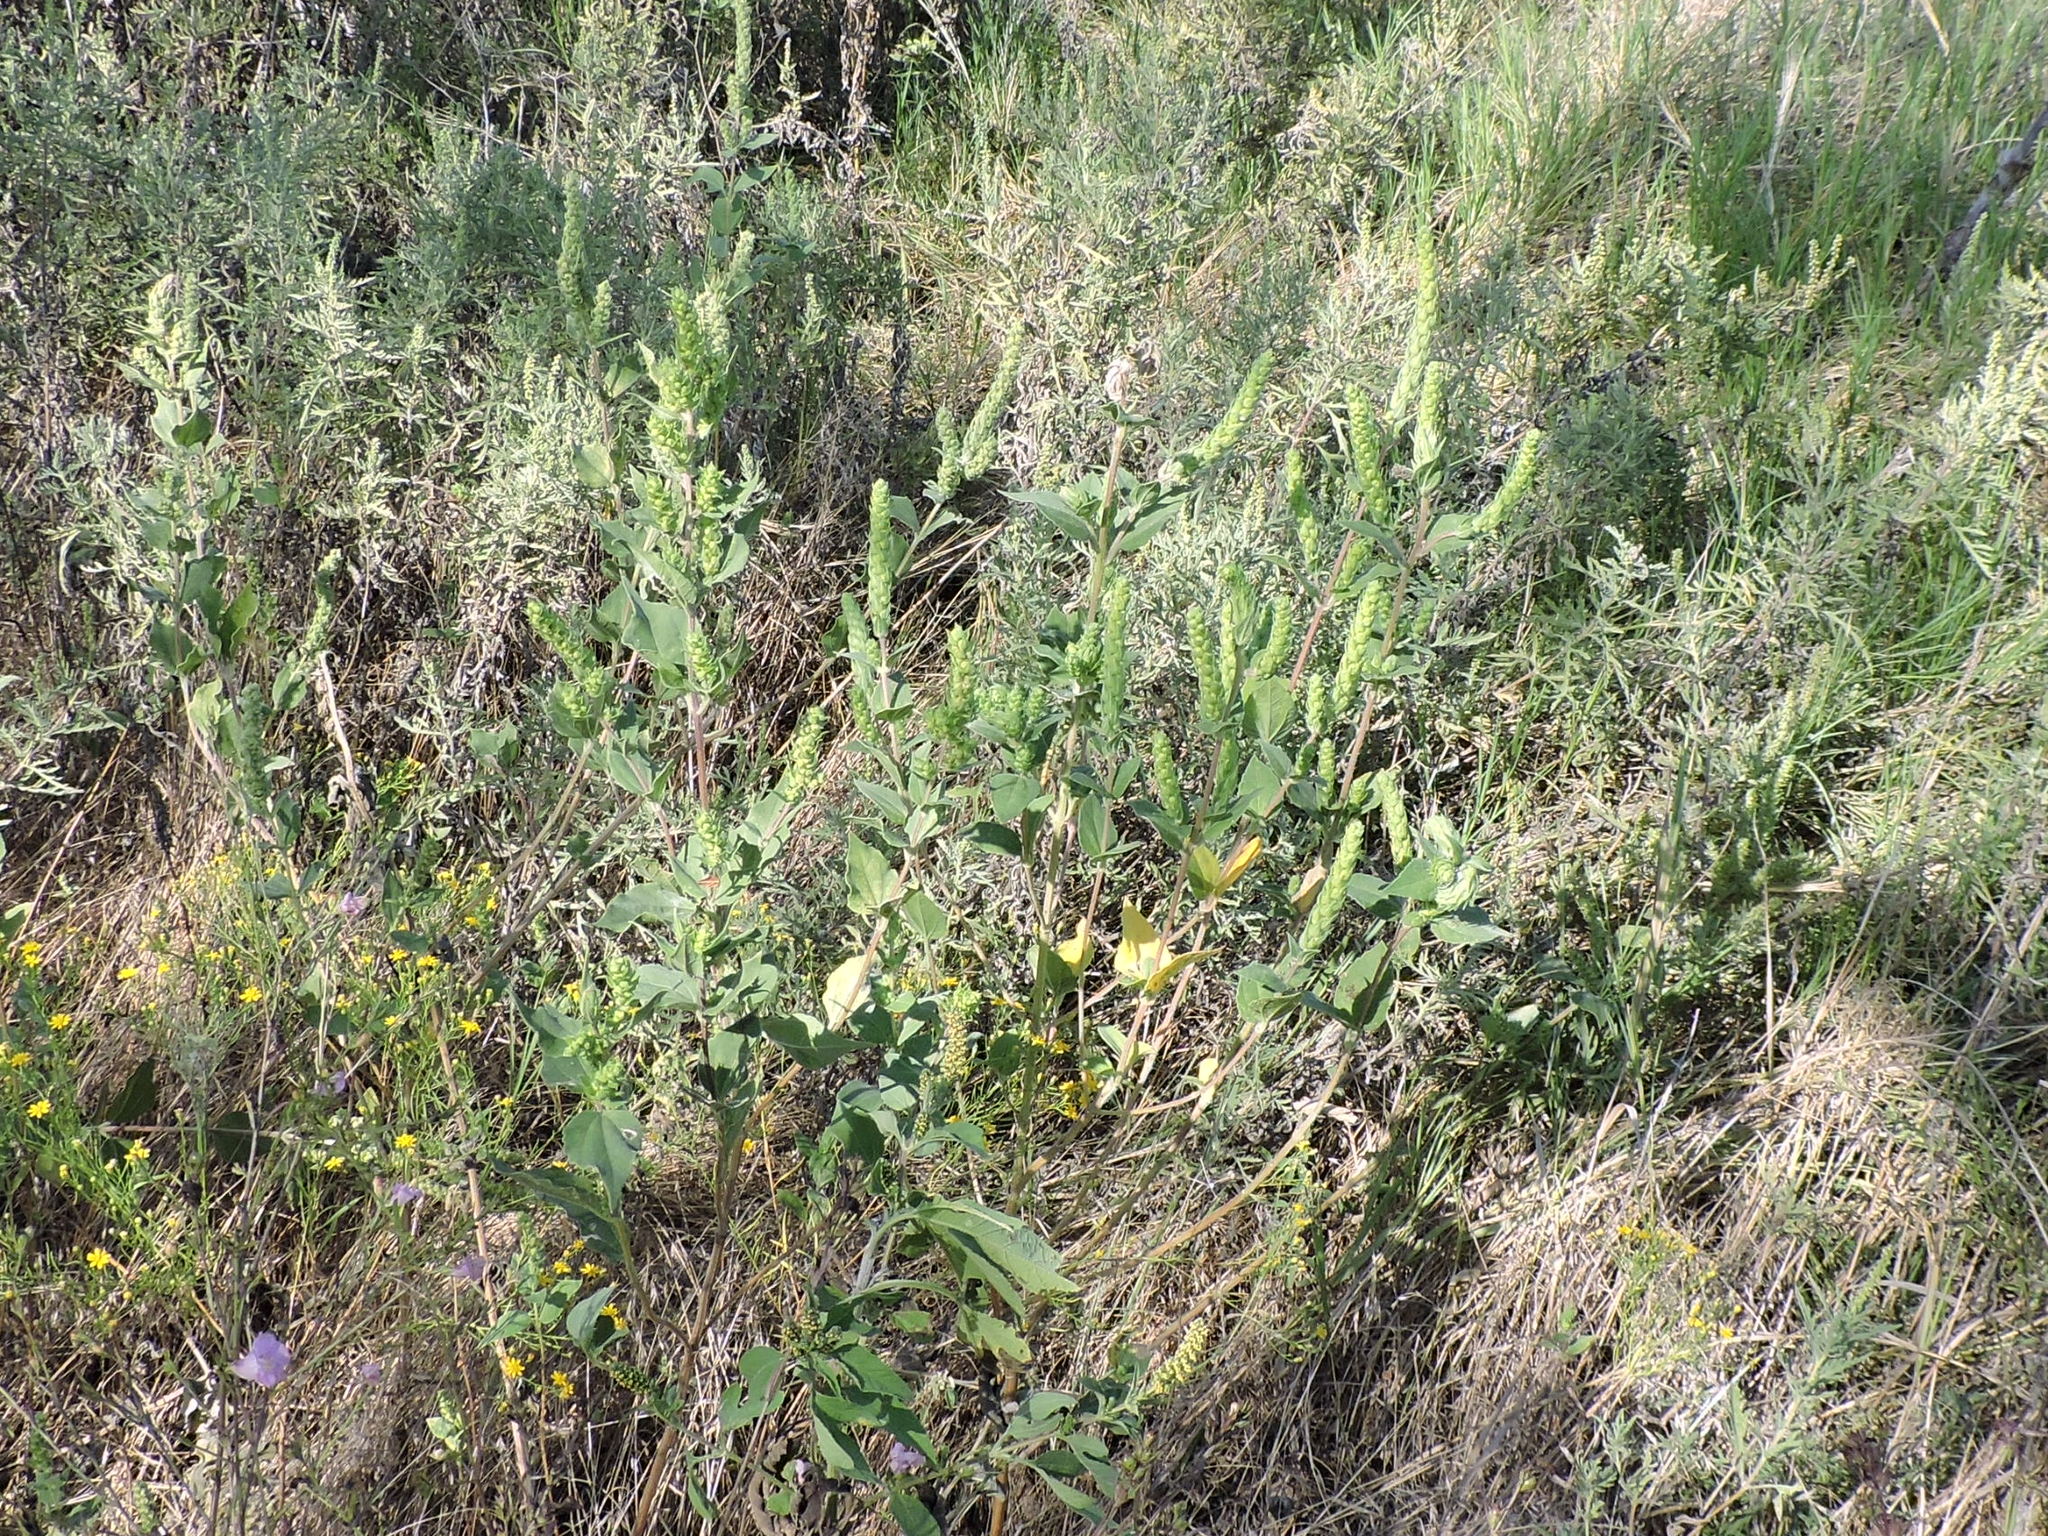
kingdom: Plantae
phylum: Tracheophyta
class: Magnoliopsida
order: Asterales
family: Asteraceae
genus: Iva
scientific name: Iva annua
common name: Marsh-elder
